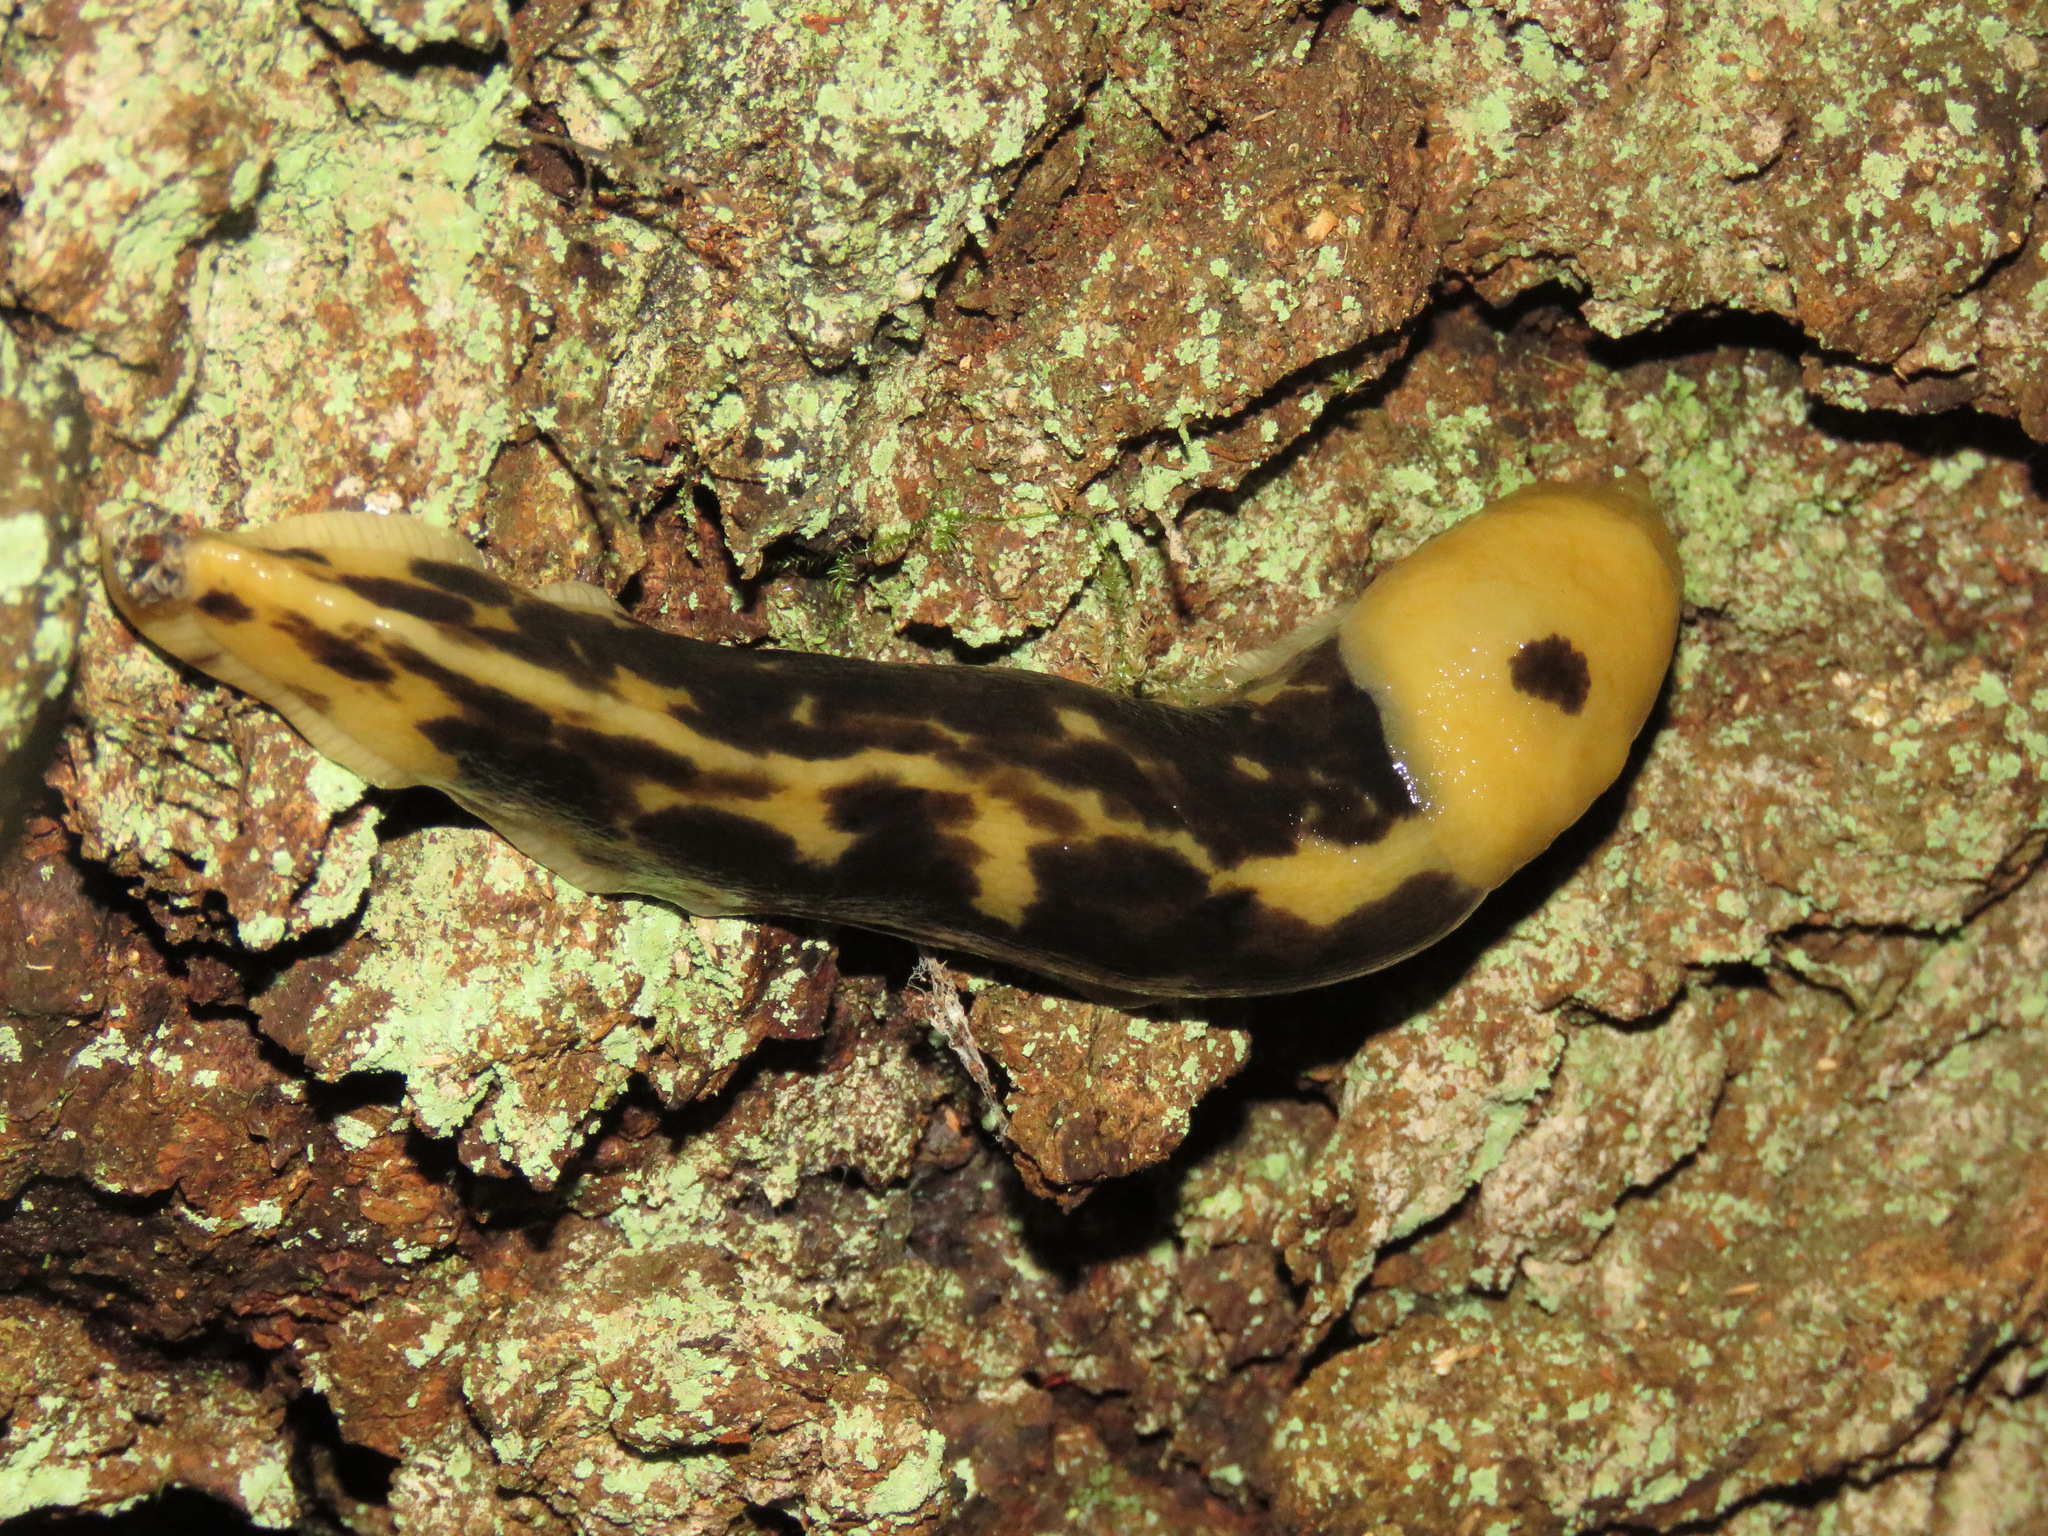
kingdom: Animalia
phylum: Mollusca
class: Gastropoda
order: Stylommatophora
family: Ariolimacidae
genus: Ariolimax
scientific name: Ariolimax columbianus
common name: Pacific banana slug
